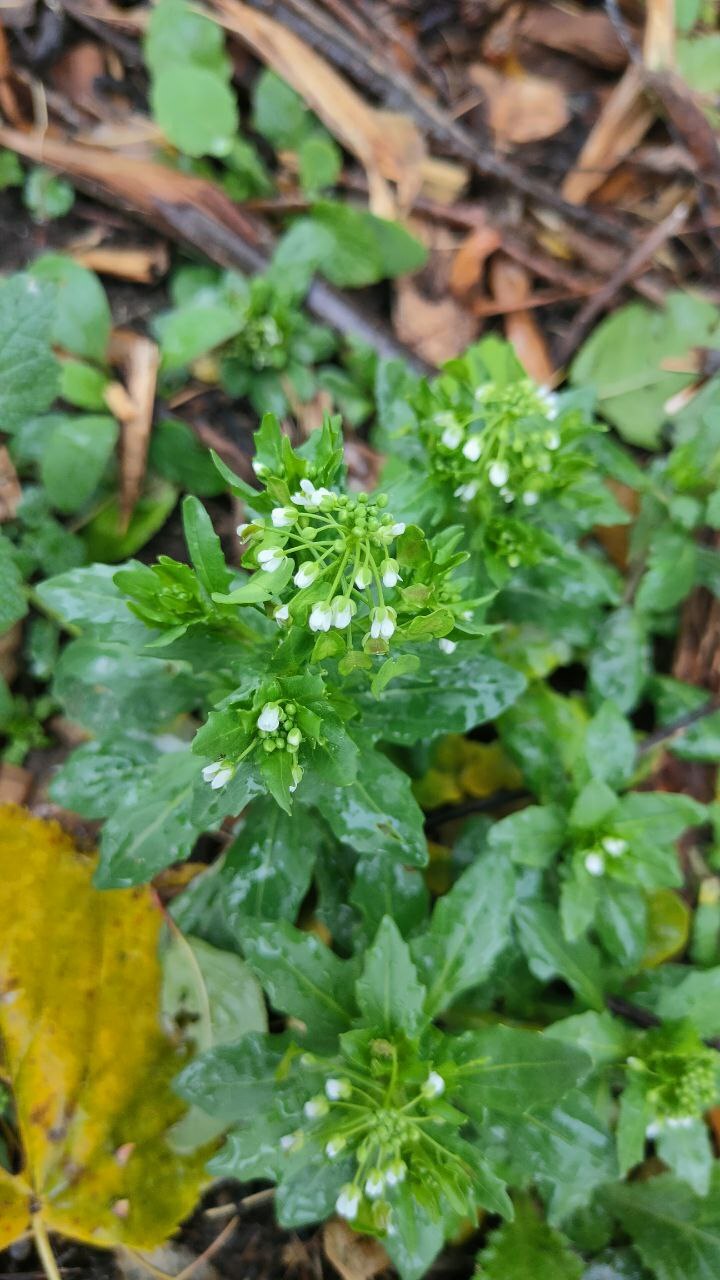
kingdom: Plantae
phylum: Tracheophyta
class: Magnoliopsida
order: Brassicales
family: Brassicaceae
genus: Thlaspi
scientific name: Thlaspi arvense
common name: Field pennycress
